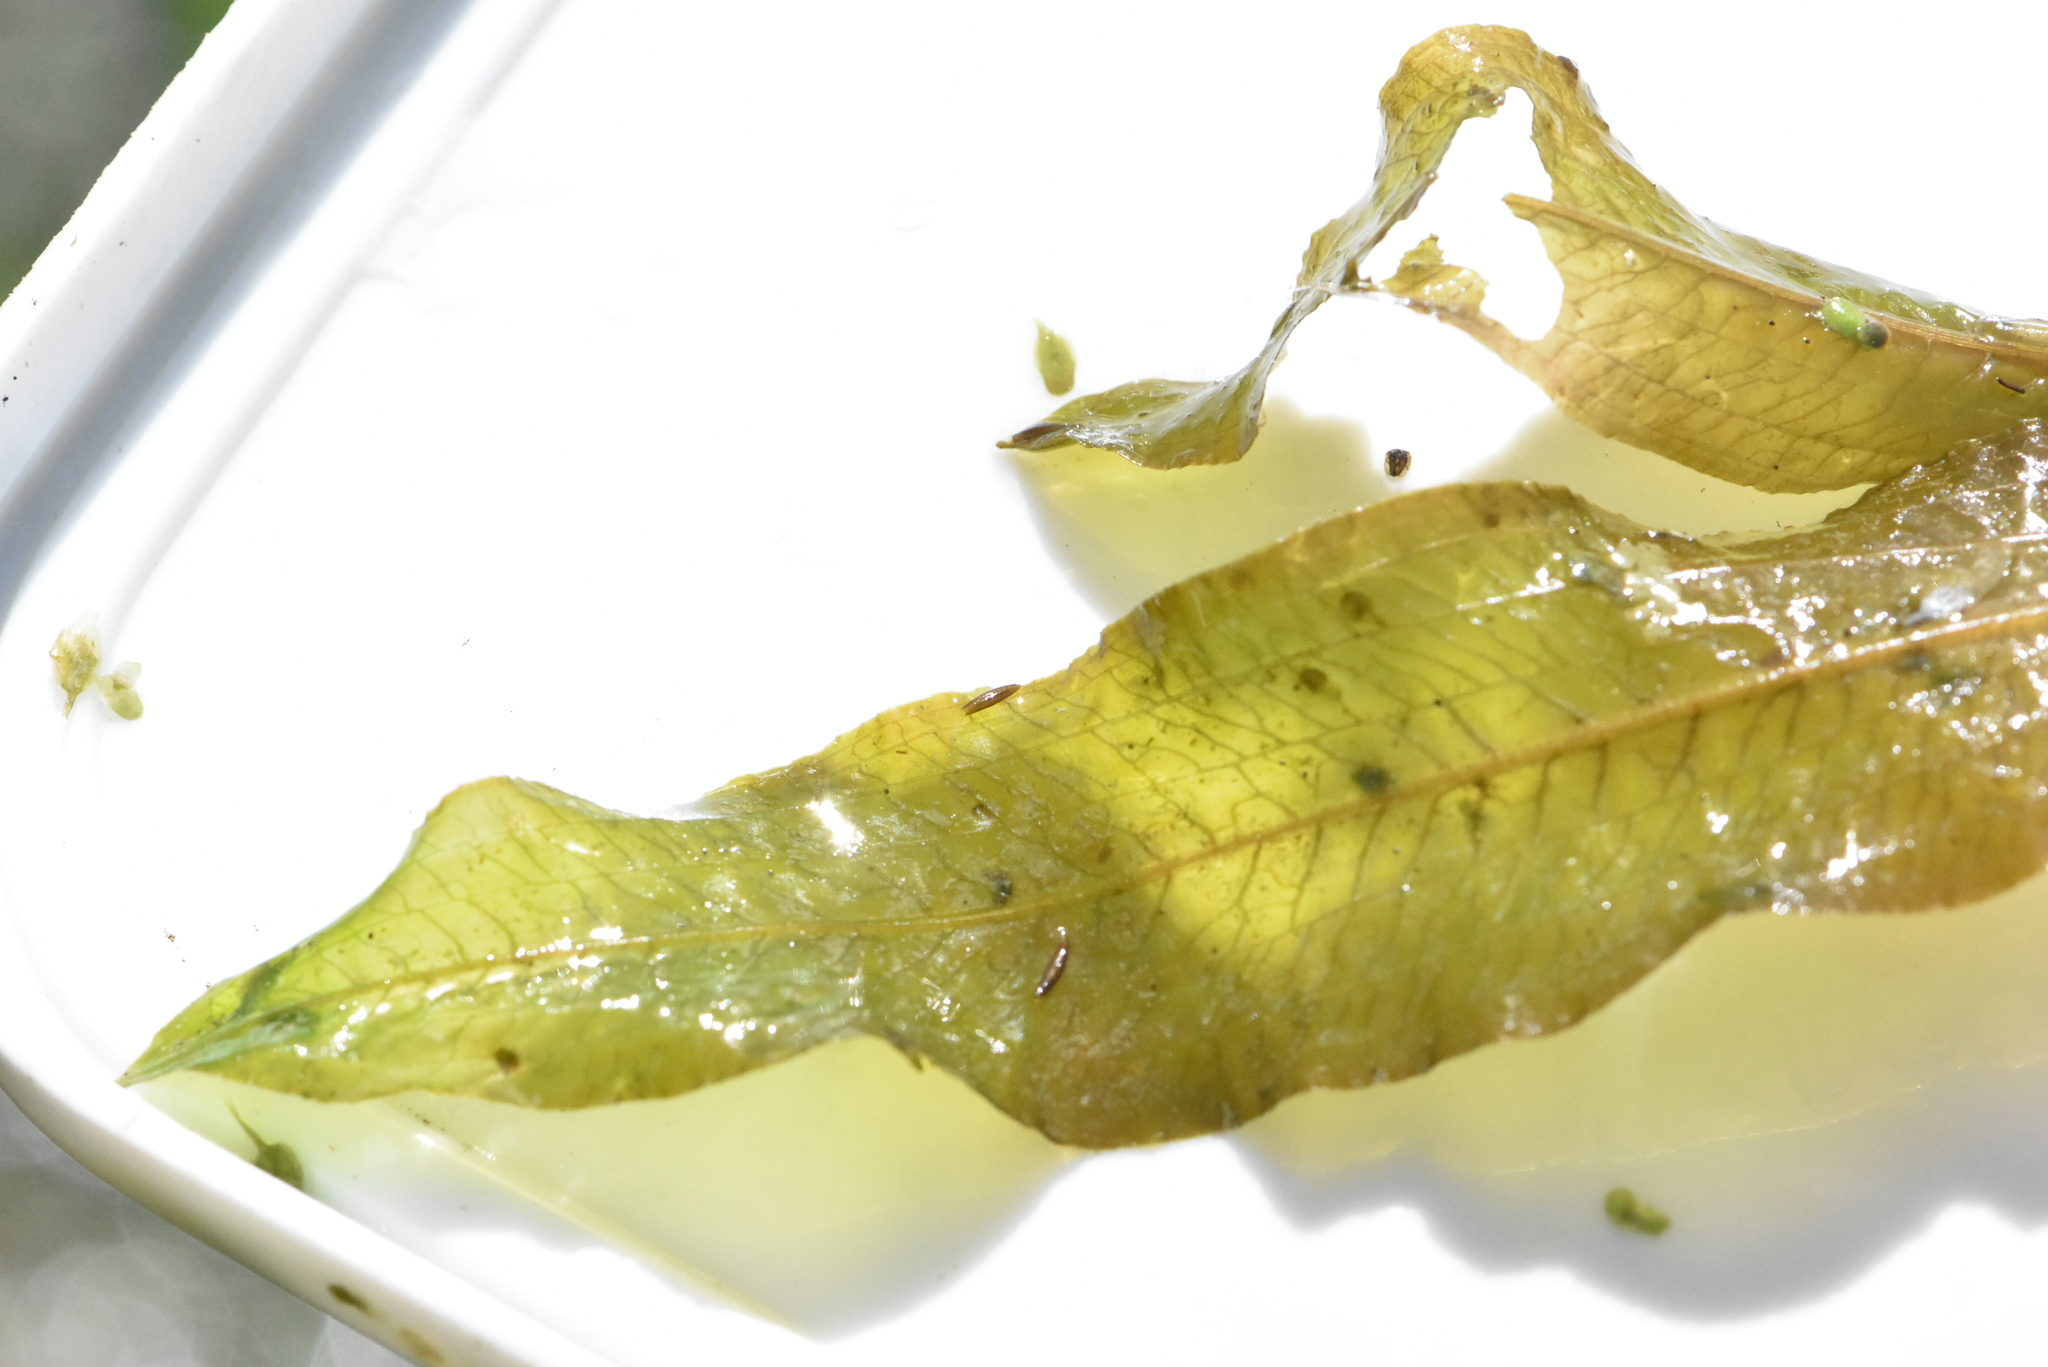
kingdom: Plantae
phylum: Tracheophyta
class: Liliopsida
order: Alismatales
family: Potamogetonaceae
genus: Potamogeton
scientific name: Potamogeton lucens
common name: Shining pondweed
